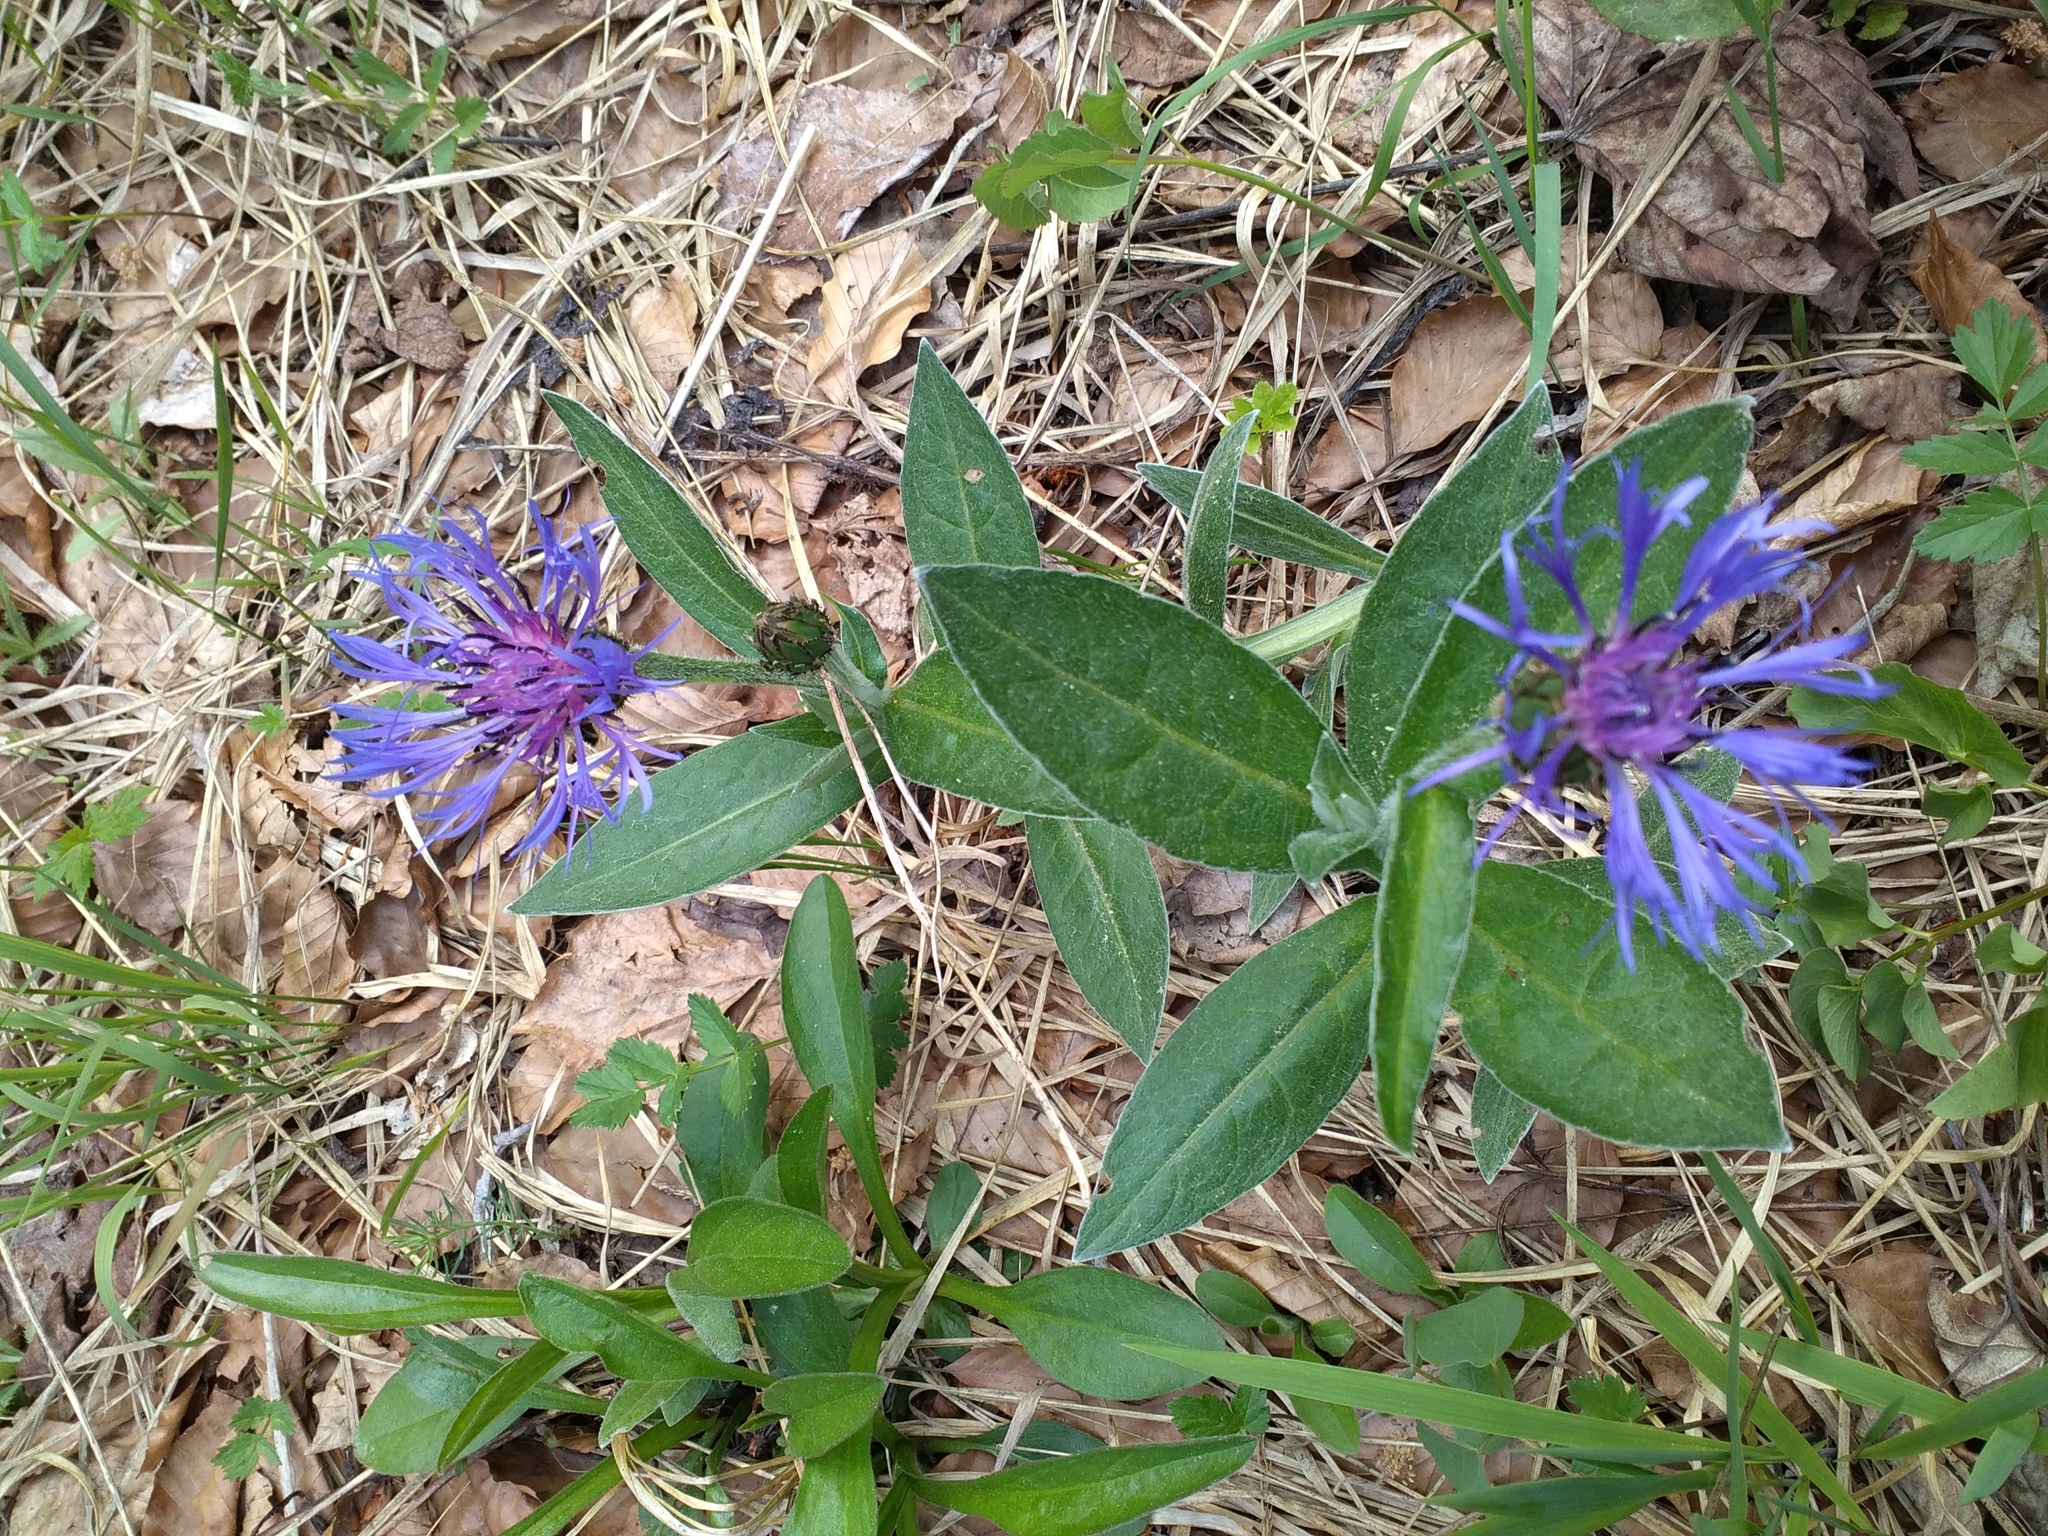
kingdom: Plantae
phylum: Tracheophyta
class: Magnoliopsida
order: Asterales
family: Asteraceae
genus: Centaurea
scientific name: Centaurea montana
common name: Perennial cornflower
